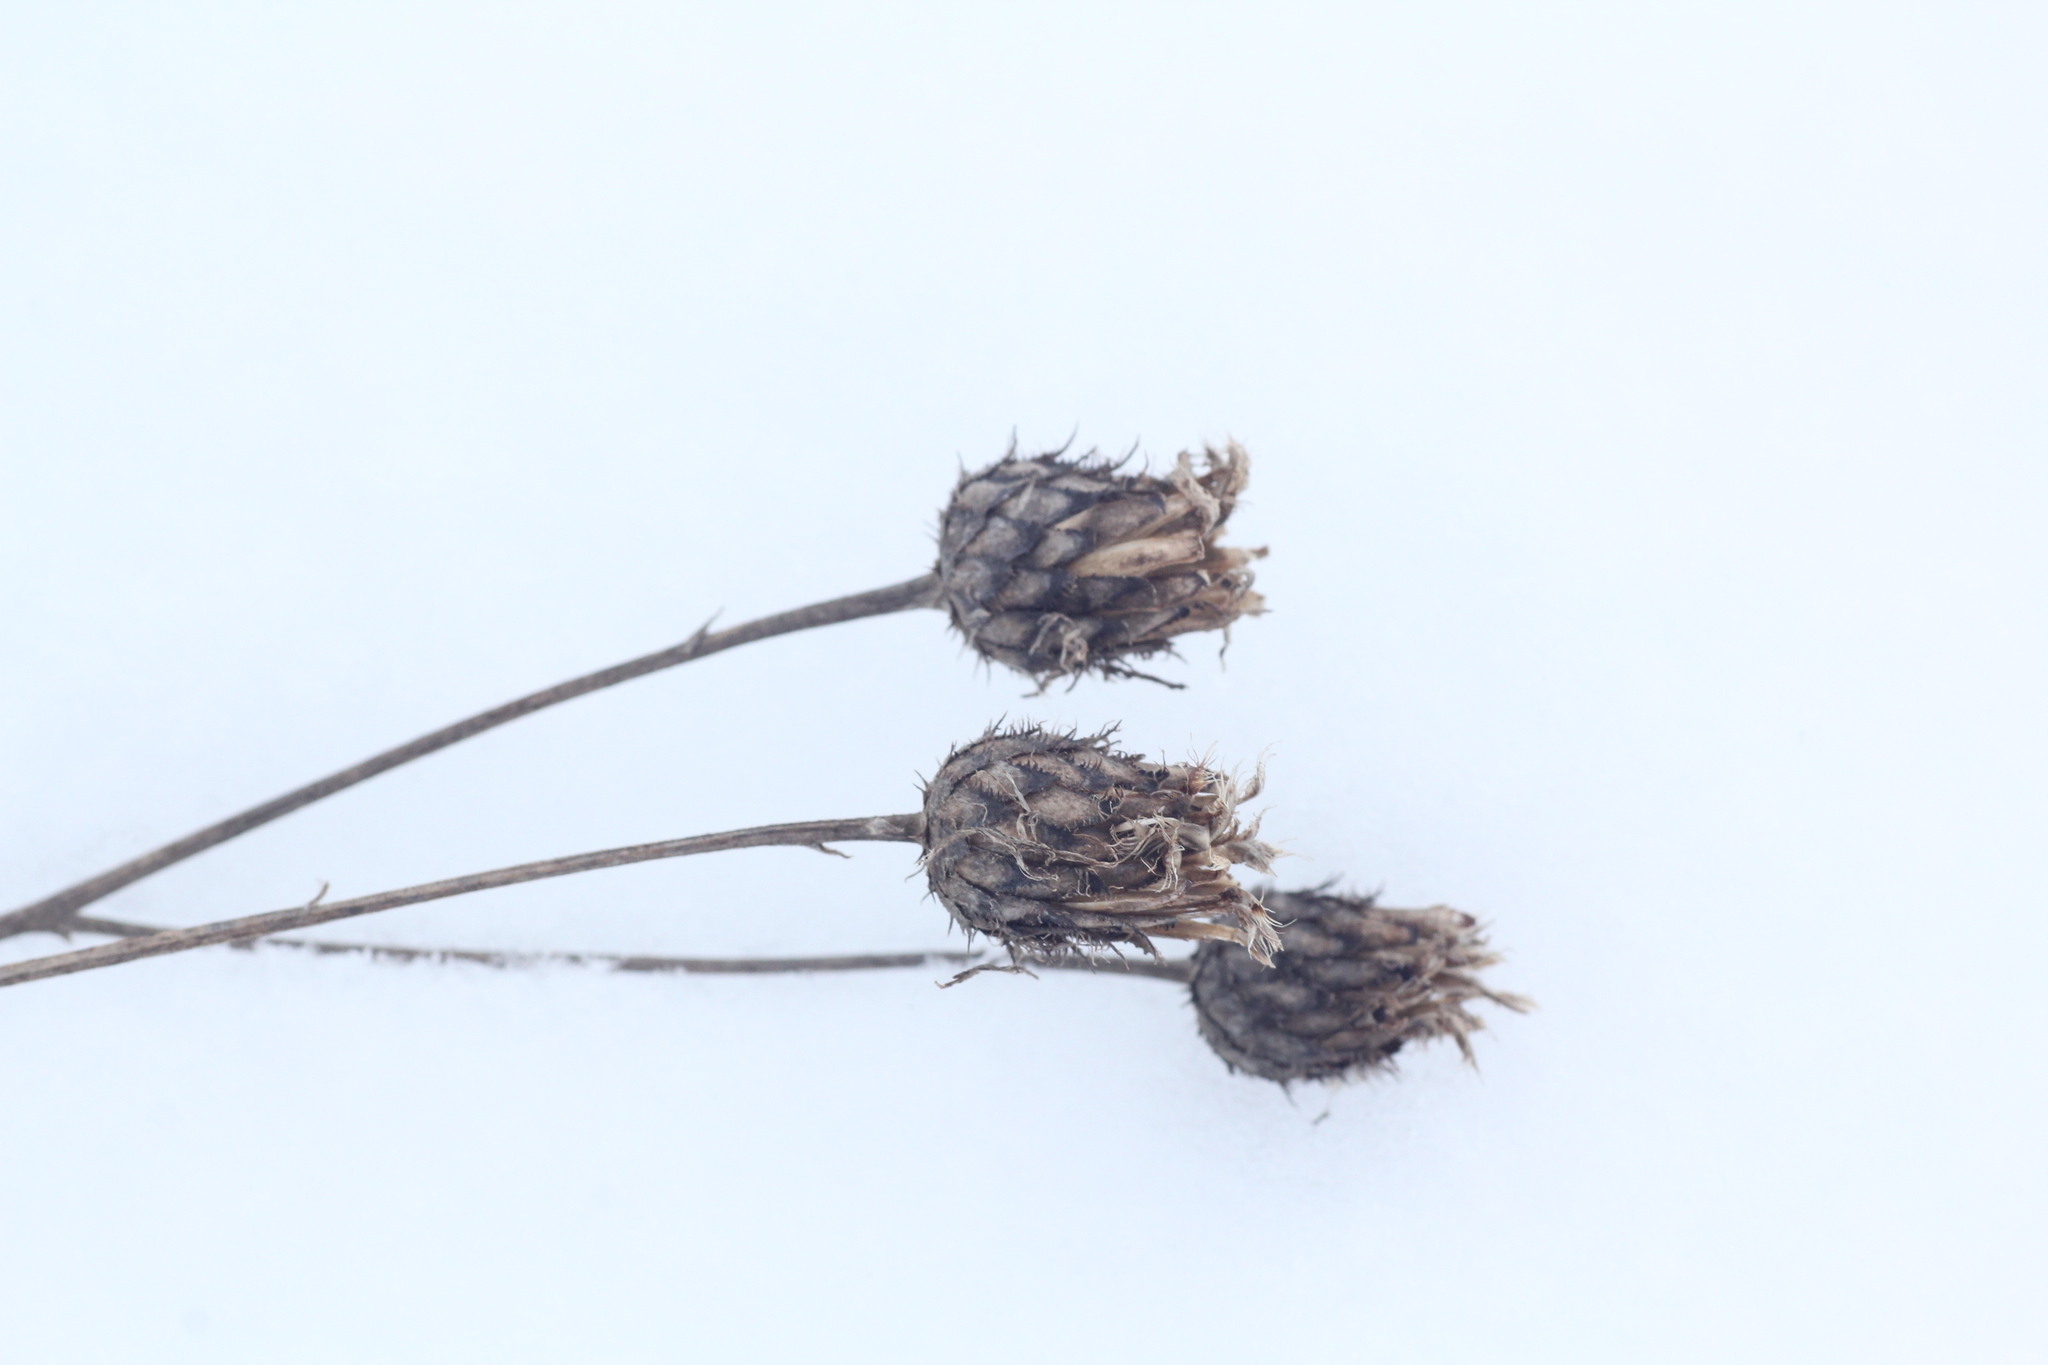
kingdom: Plantae
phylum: Tracheophyta
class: Magnoliopsida
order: Asterales
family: Asteraceae
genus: Centaurea
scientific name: Centaurea scabiosa
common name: Greater knapweed
